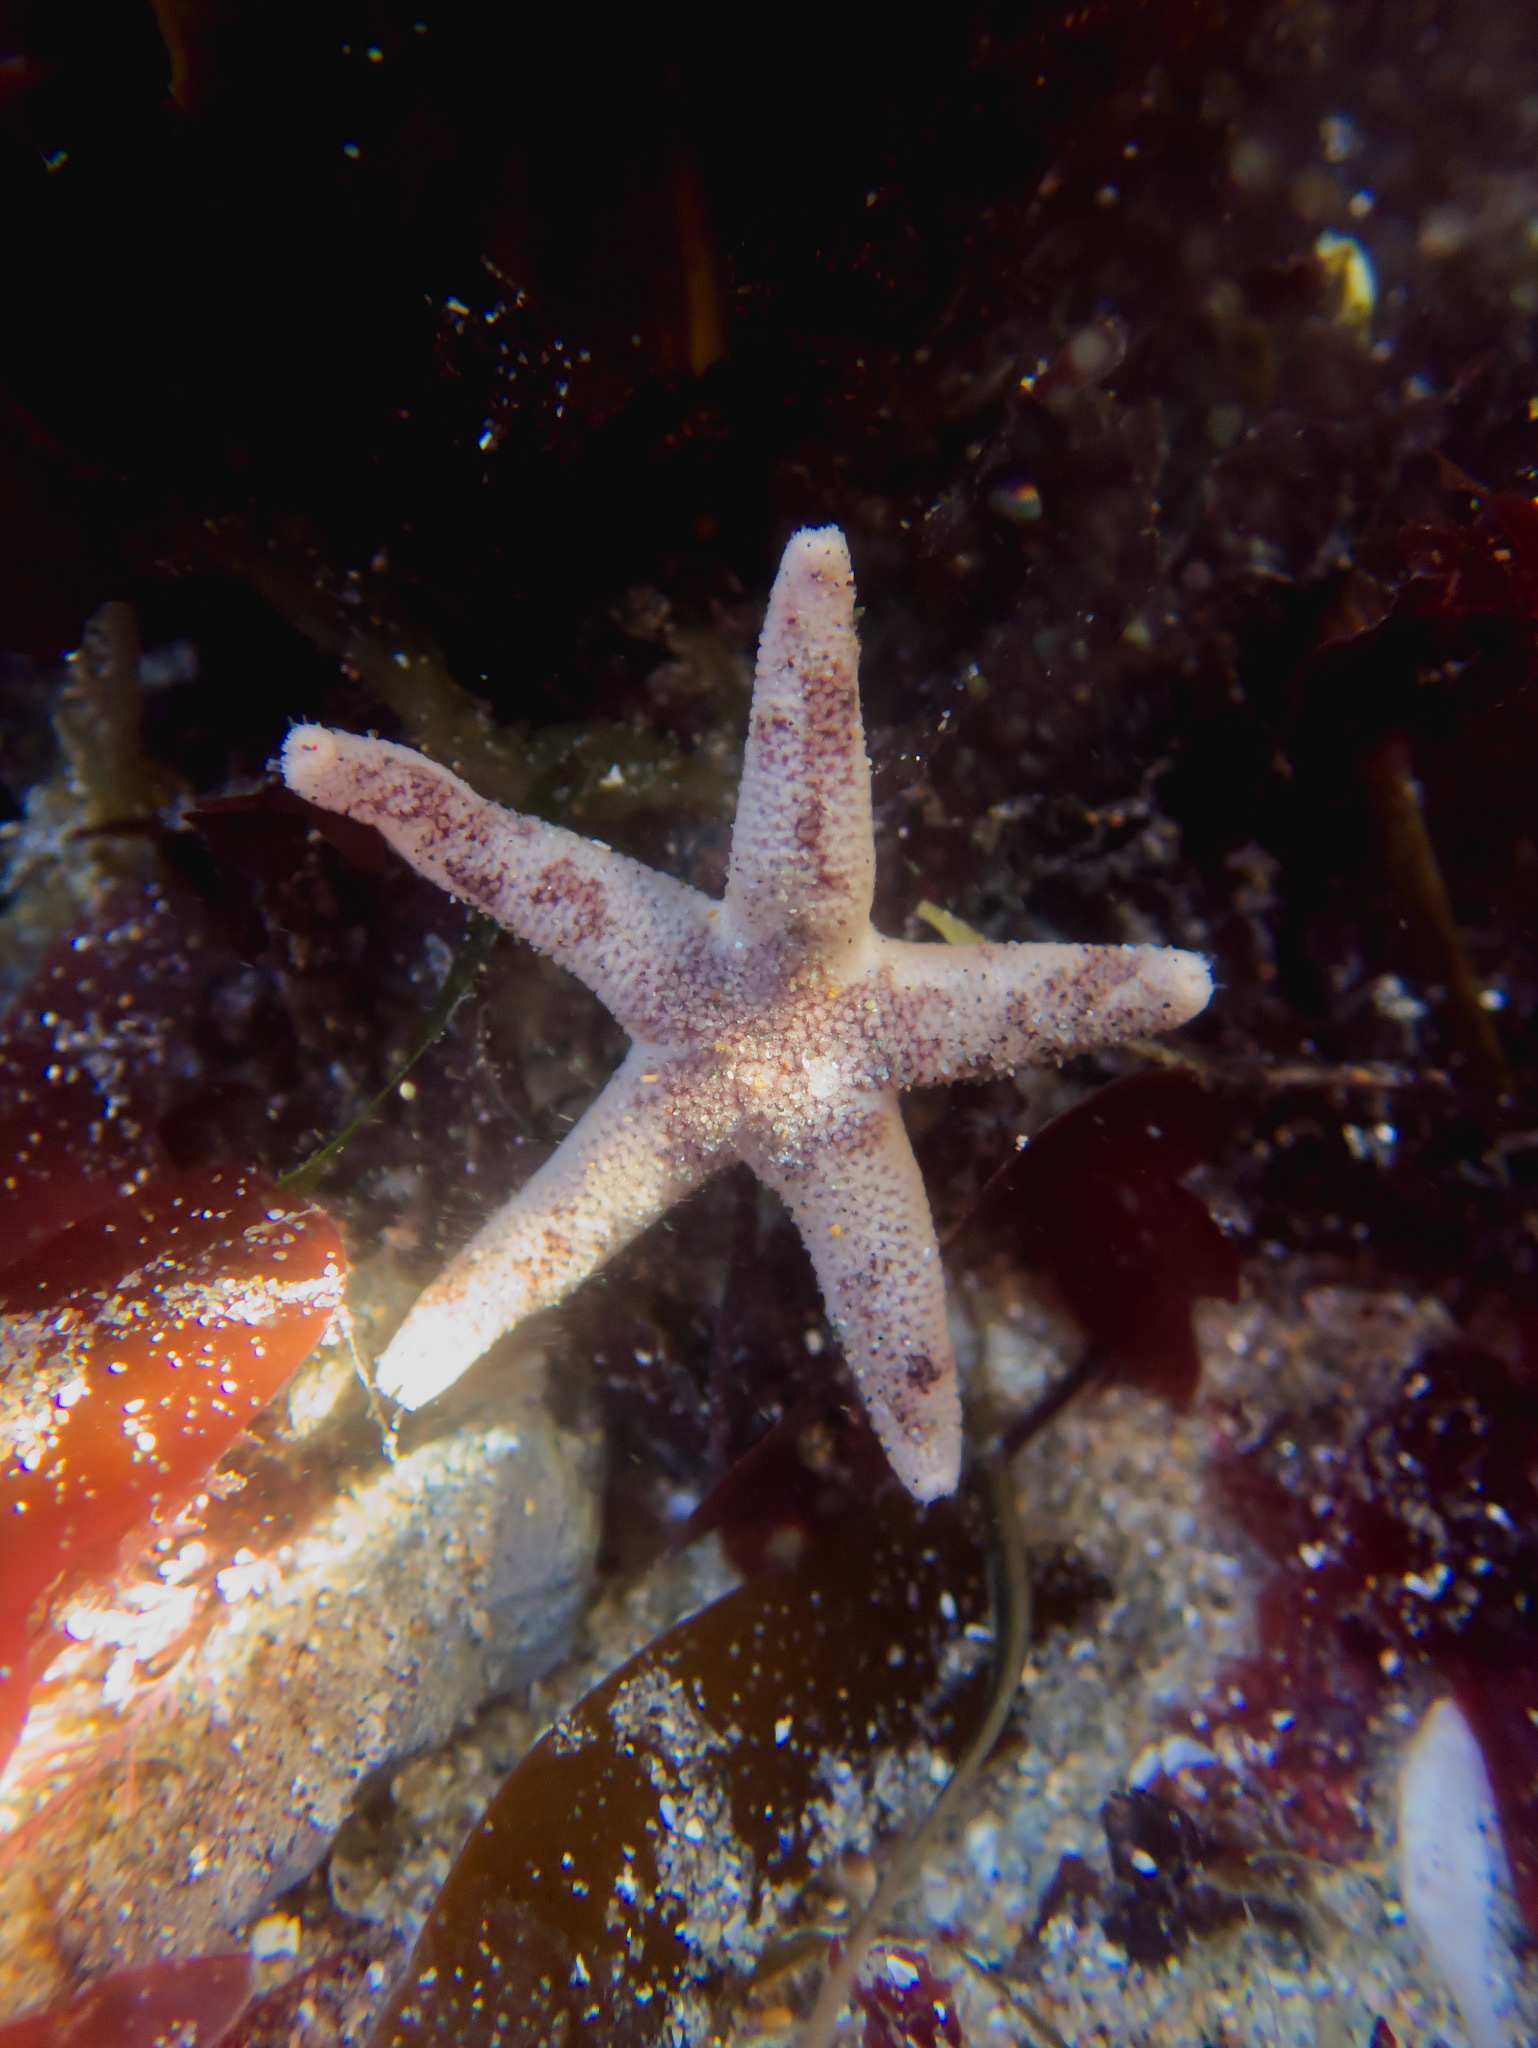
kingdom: Animalia
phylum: Echinodermata
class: Asteroidea
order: Spinulosida
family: Echinasteridae
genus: Henricia
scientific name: Henricia pumila
